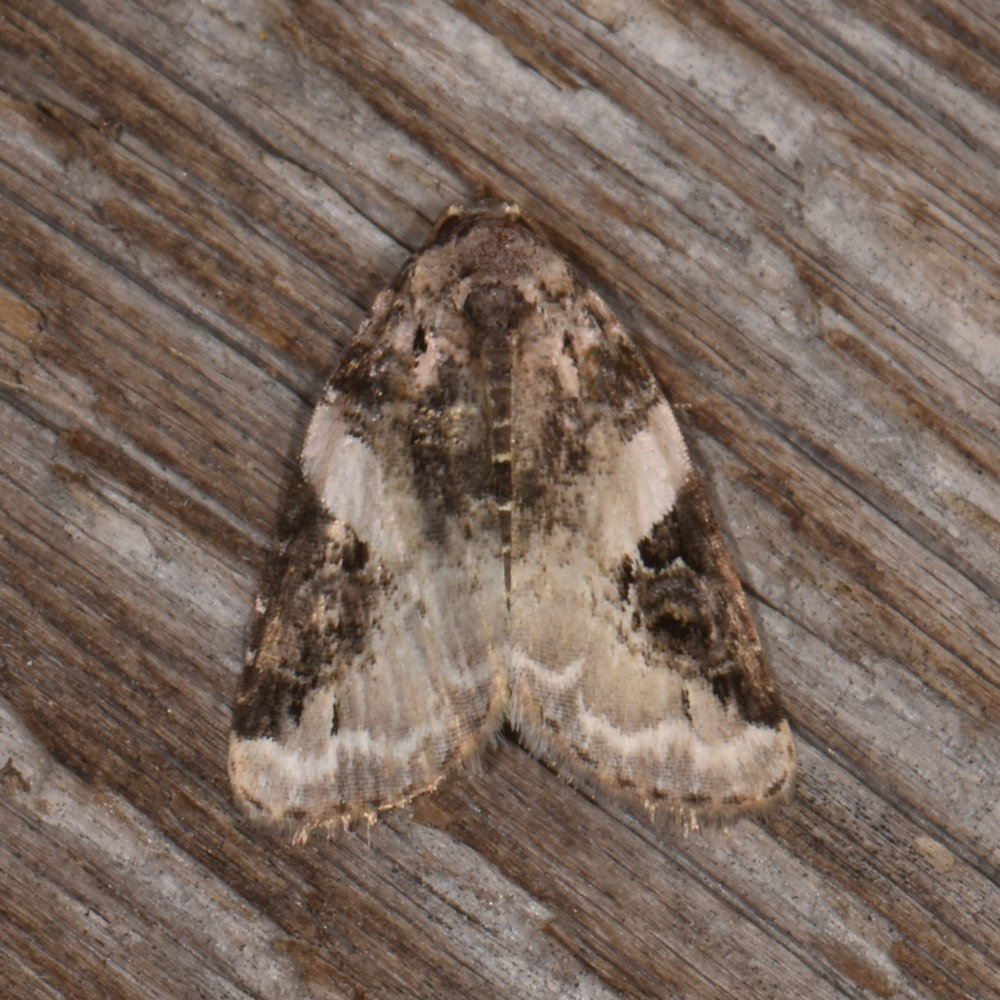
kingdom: Animalia
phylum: Arthropoda
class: Insecta
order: Lepidoptera
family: Noctuidae
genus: Pseudeustrotia
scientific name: Pseudeustrotia carneola
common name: Pink-barred lithacodia moth
